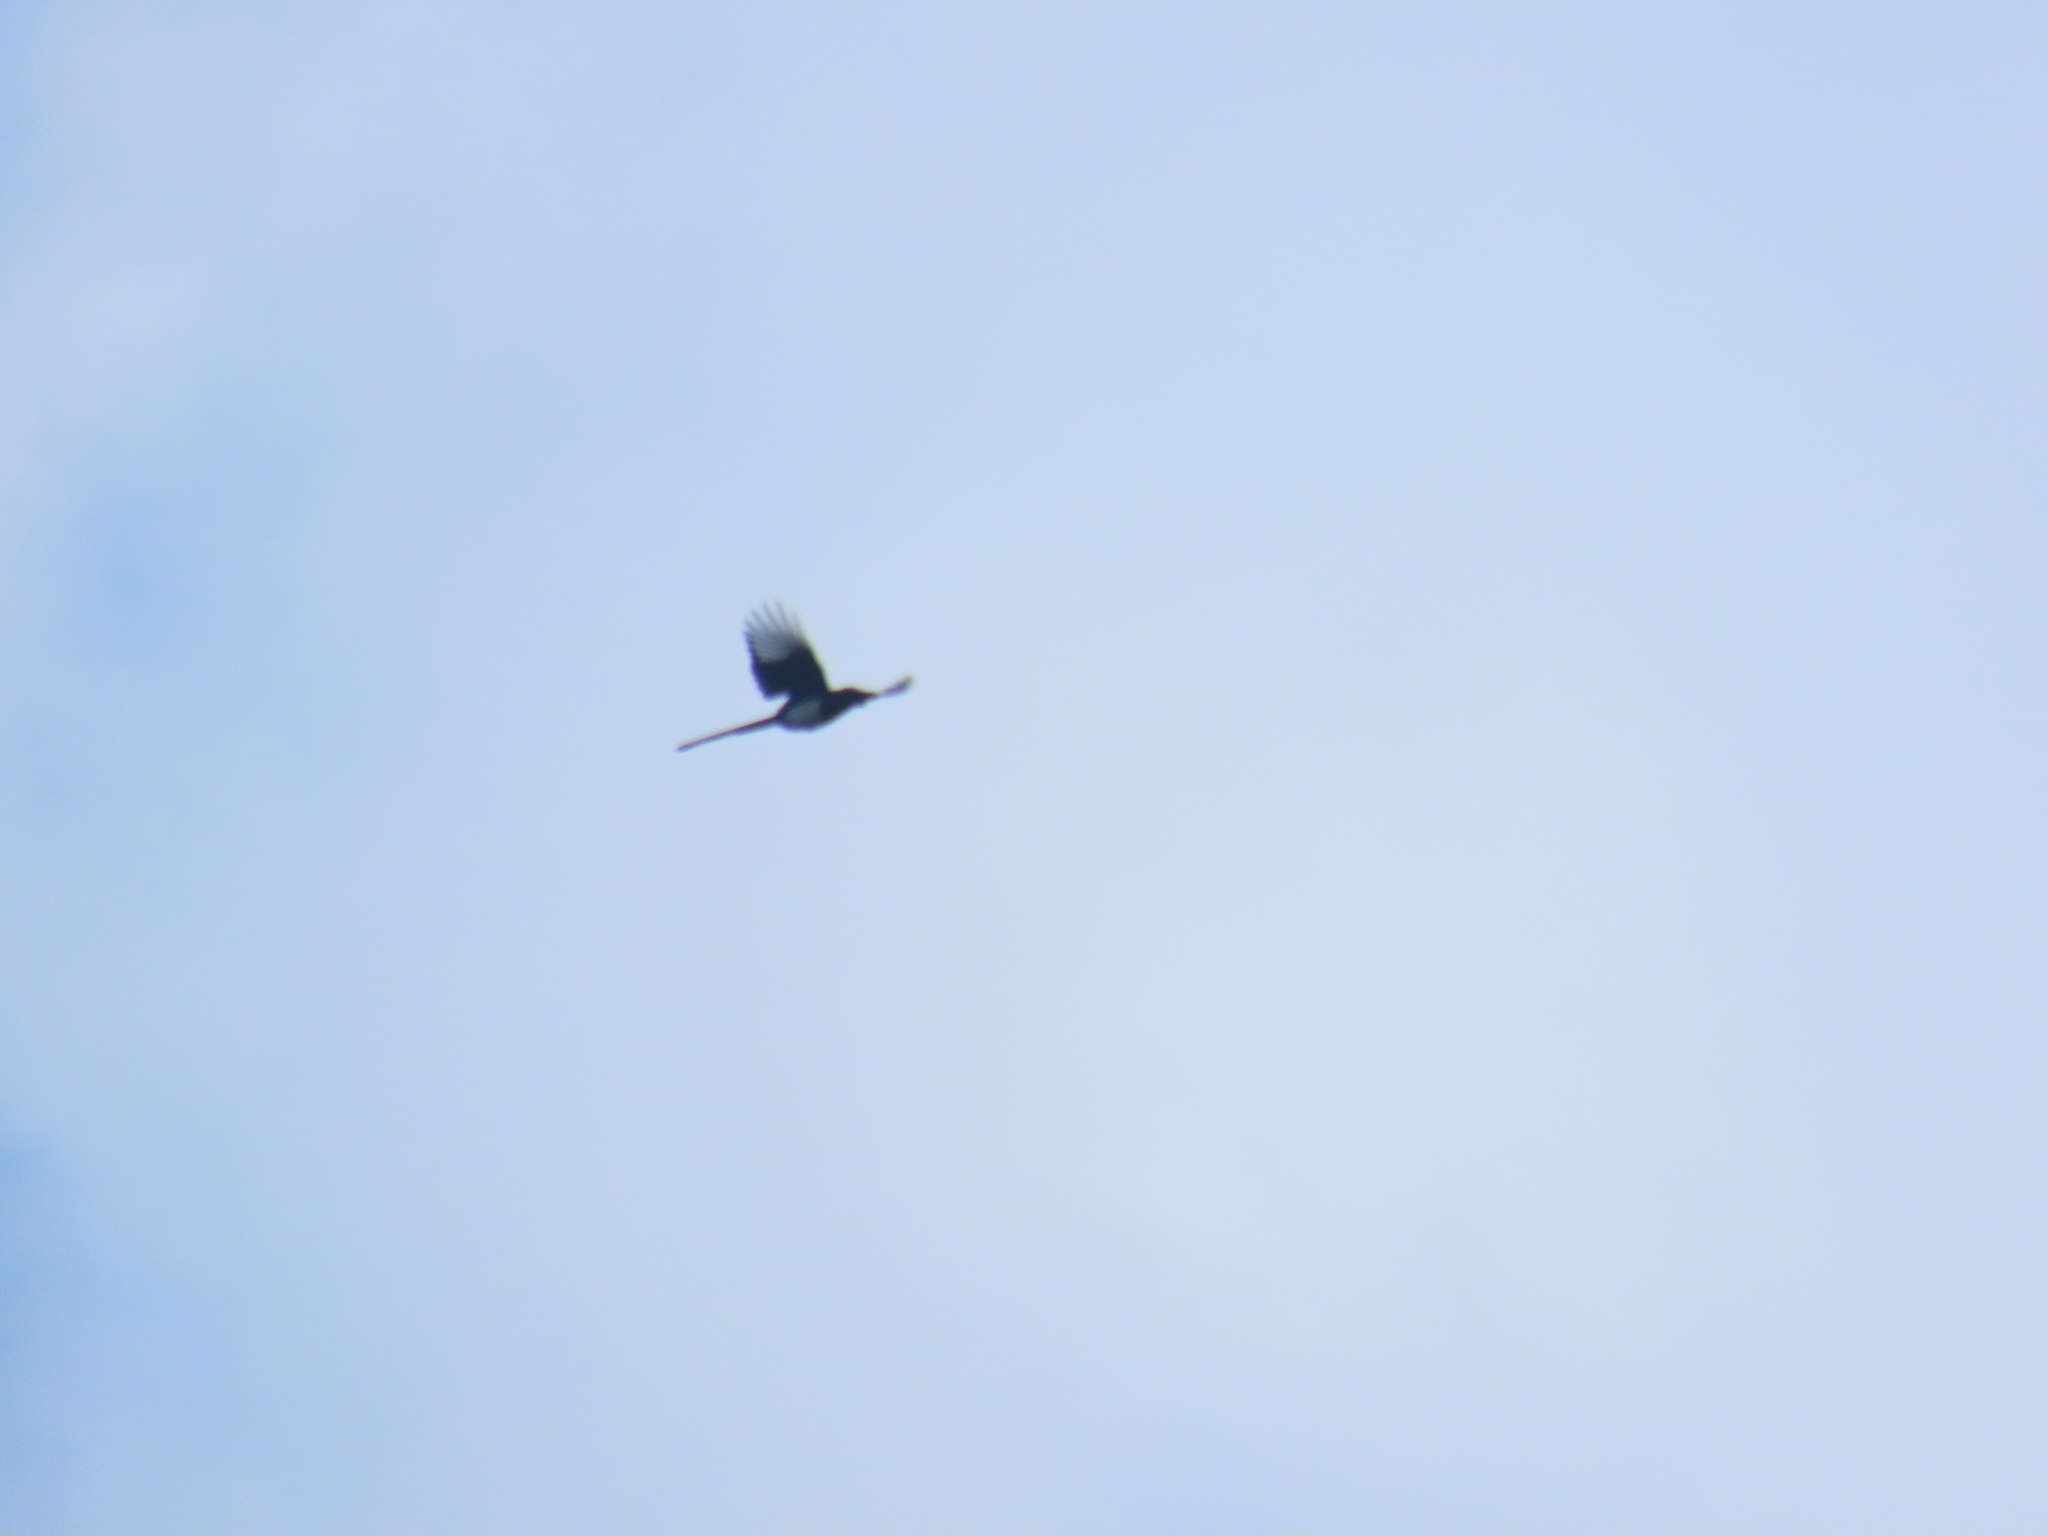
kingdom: Animalia
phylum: Chordata
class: Aves
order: Passeriformes
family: Corvidae
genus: Pica
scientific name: Pica hudsonia
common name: Black-billed magpie
